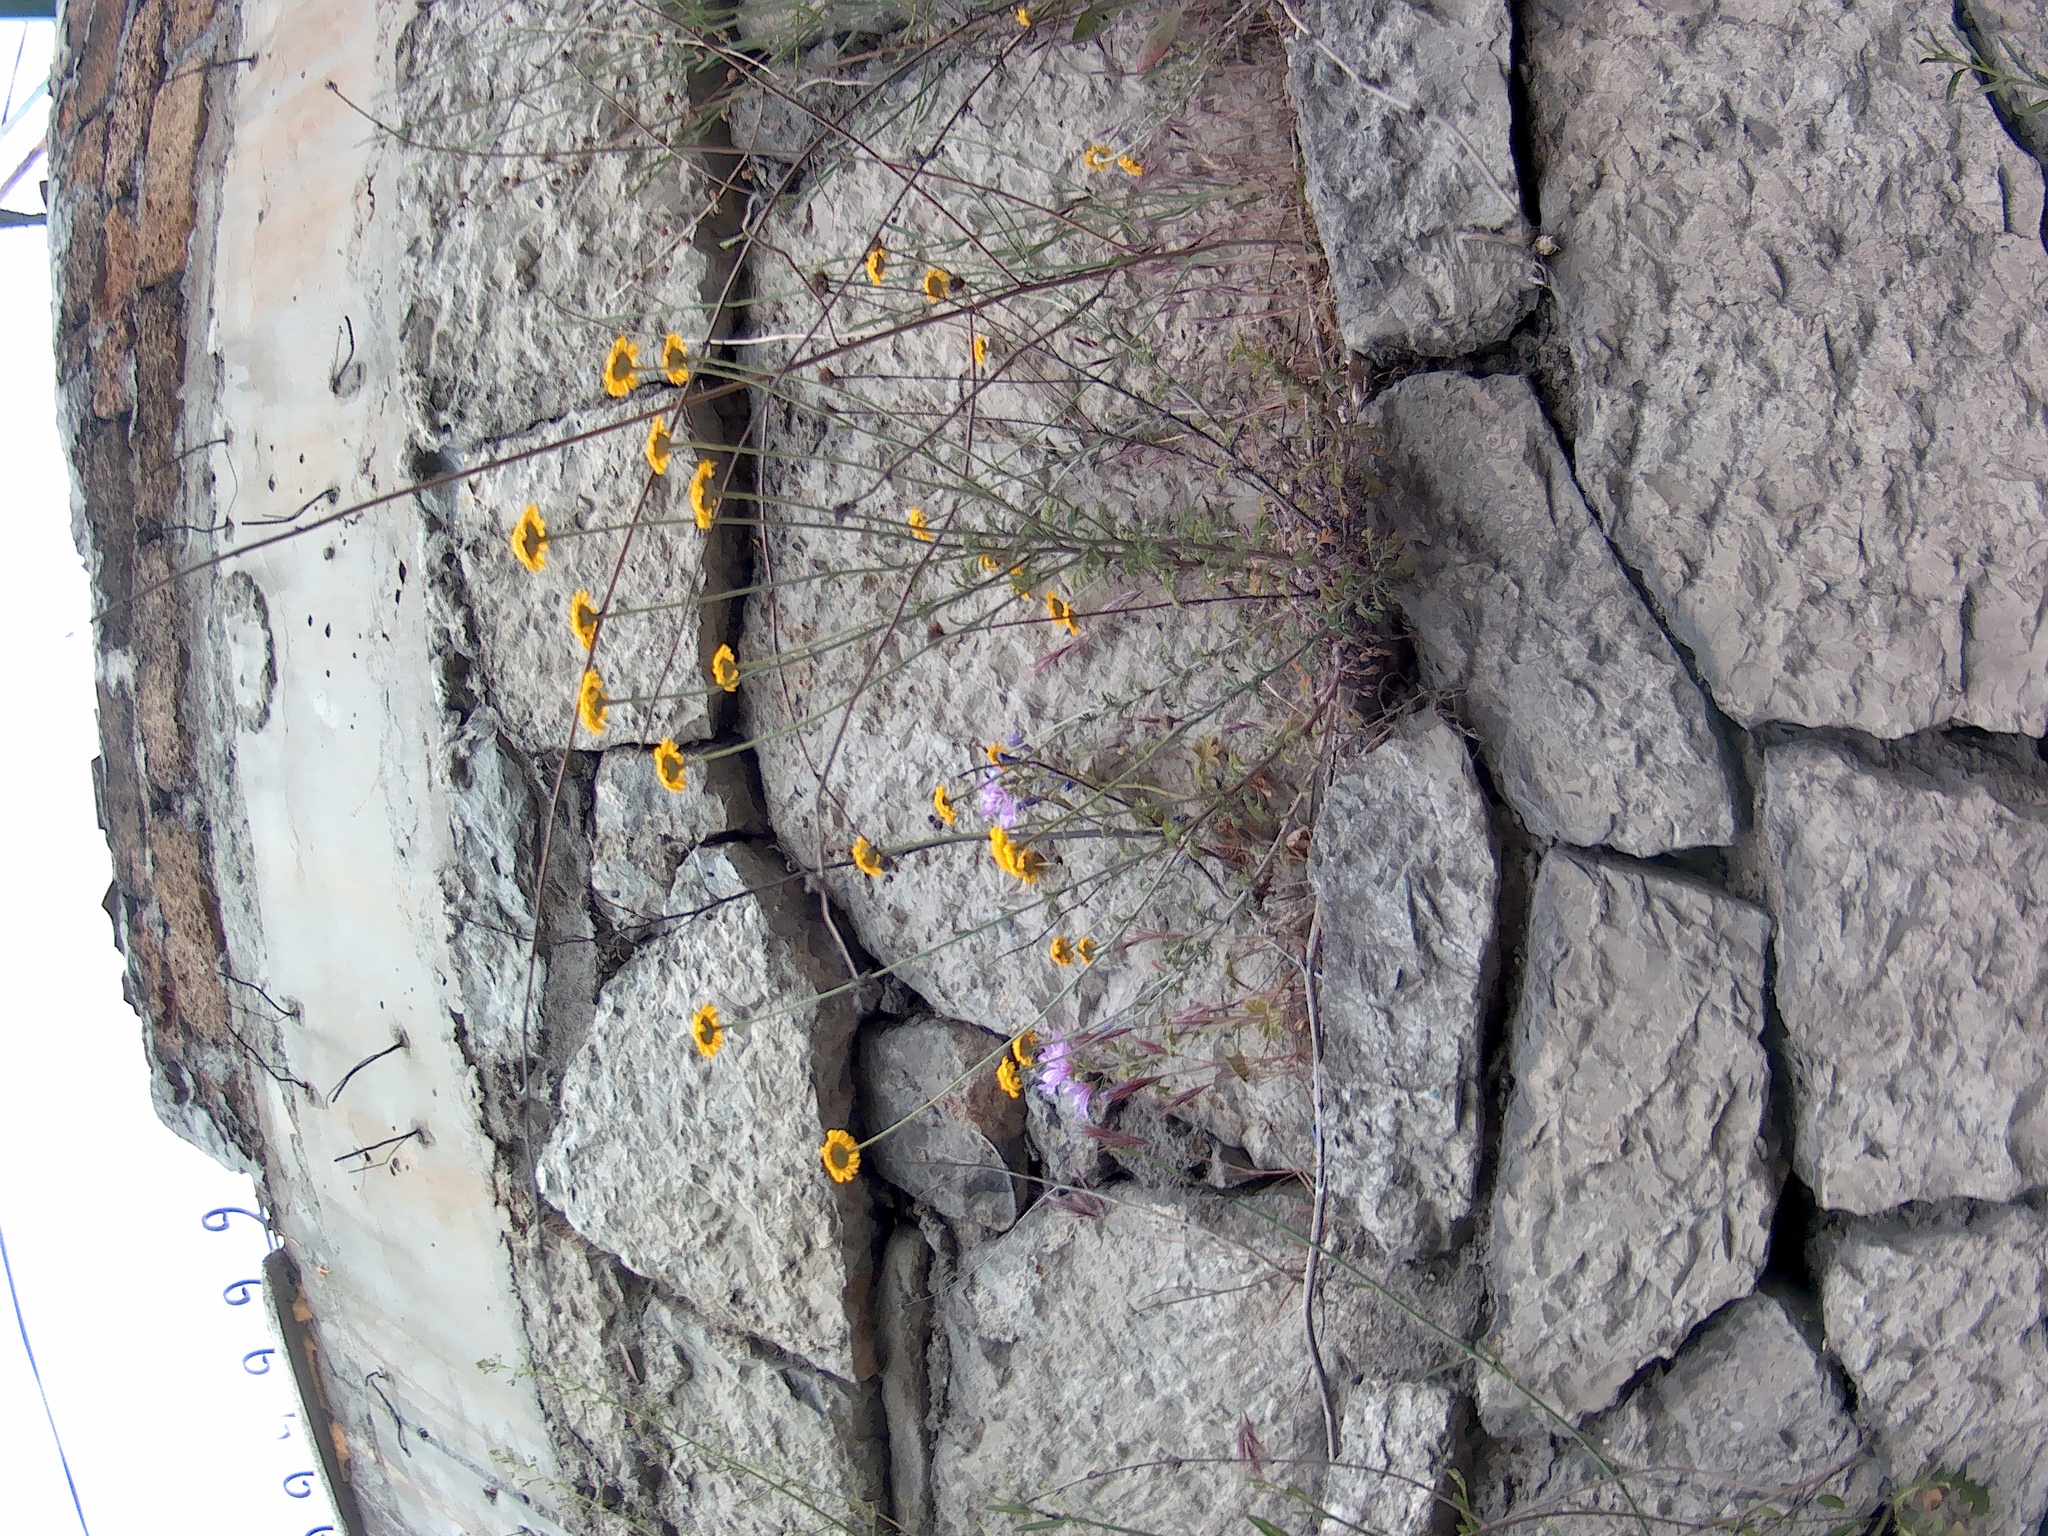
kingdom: Plantae
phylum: Tracheophyta
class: Magnoliopsida
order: Asterales
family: Asteraceae
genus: Cota
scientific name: Cota monantha
